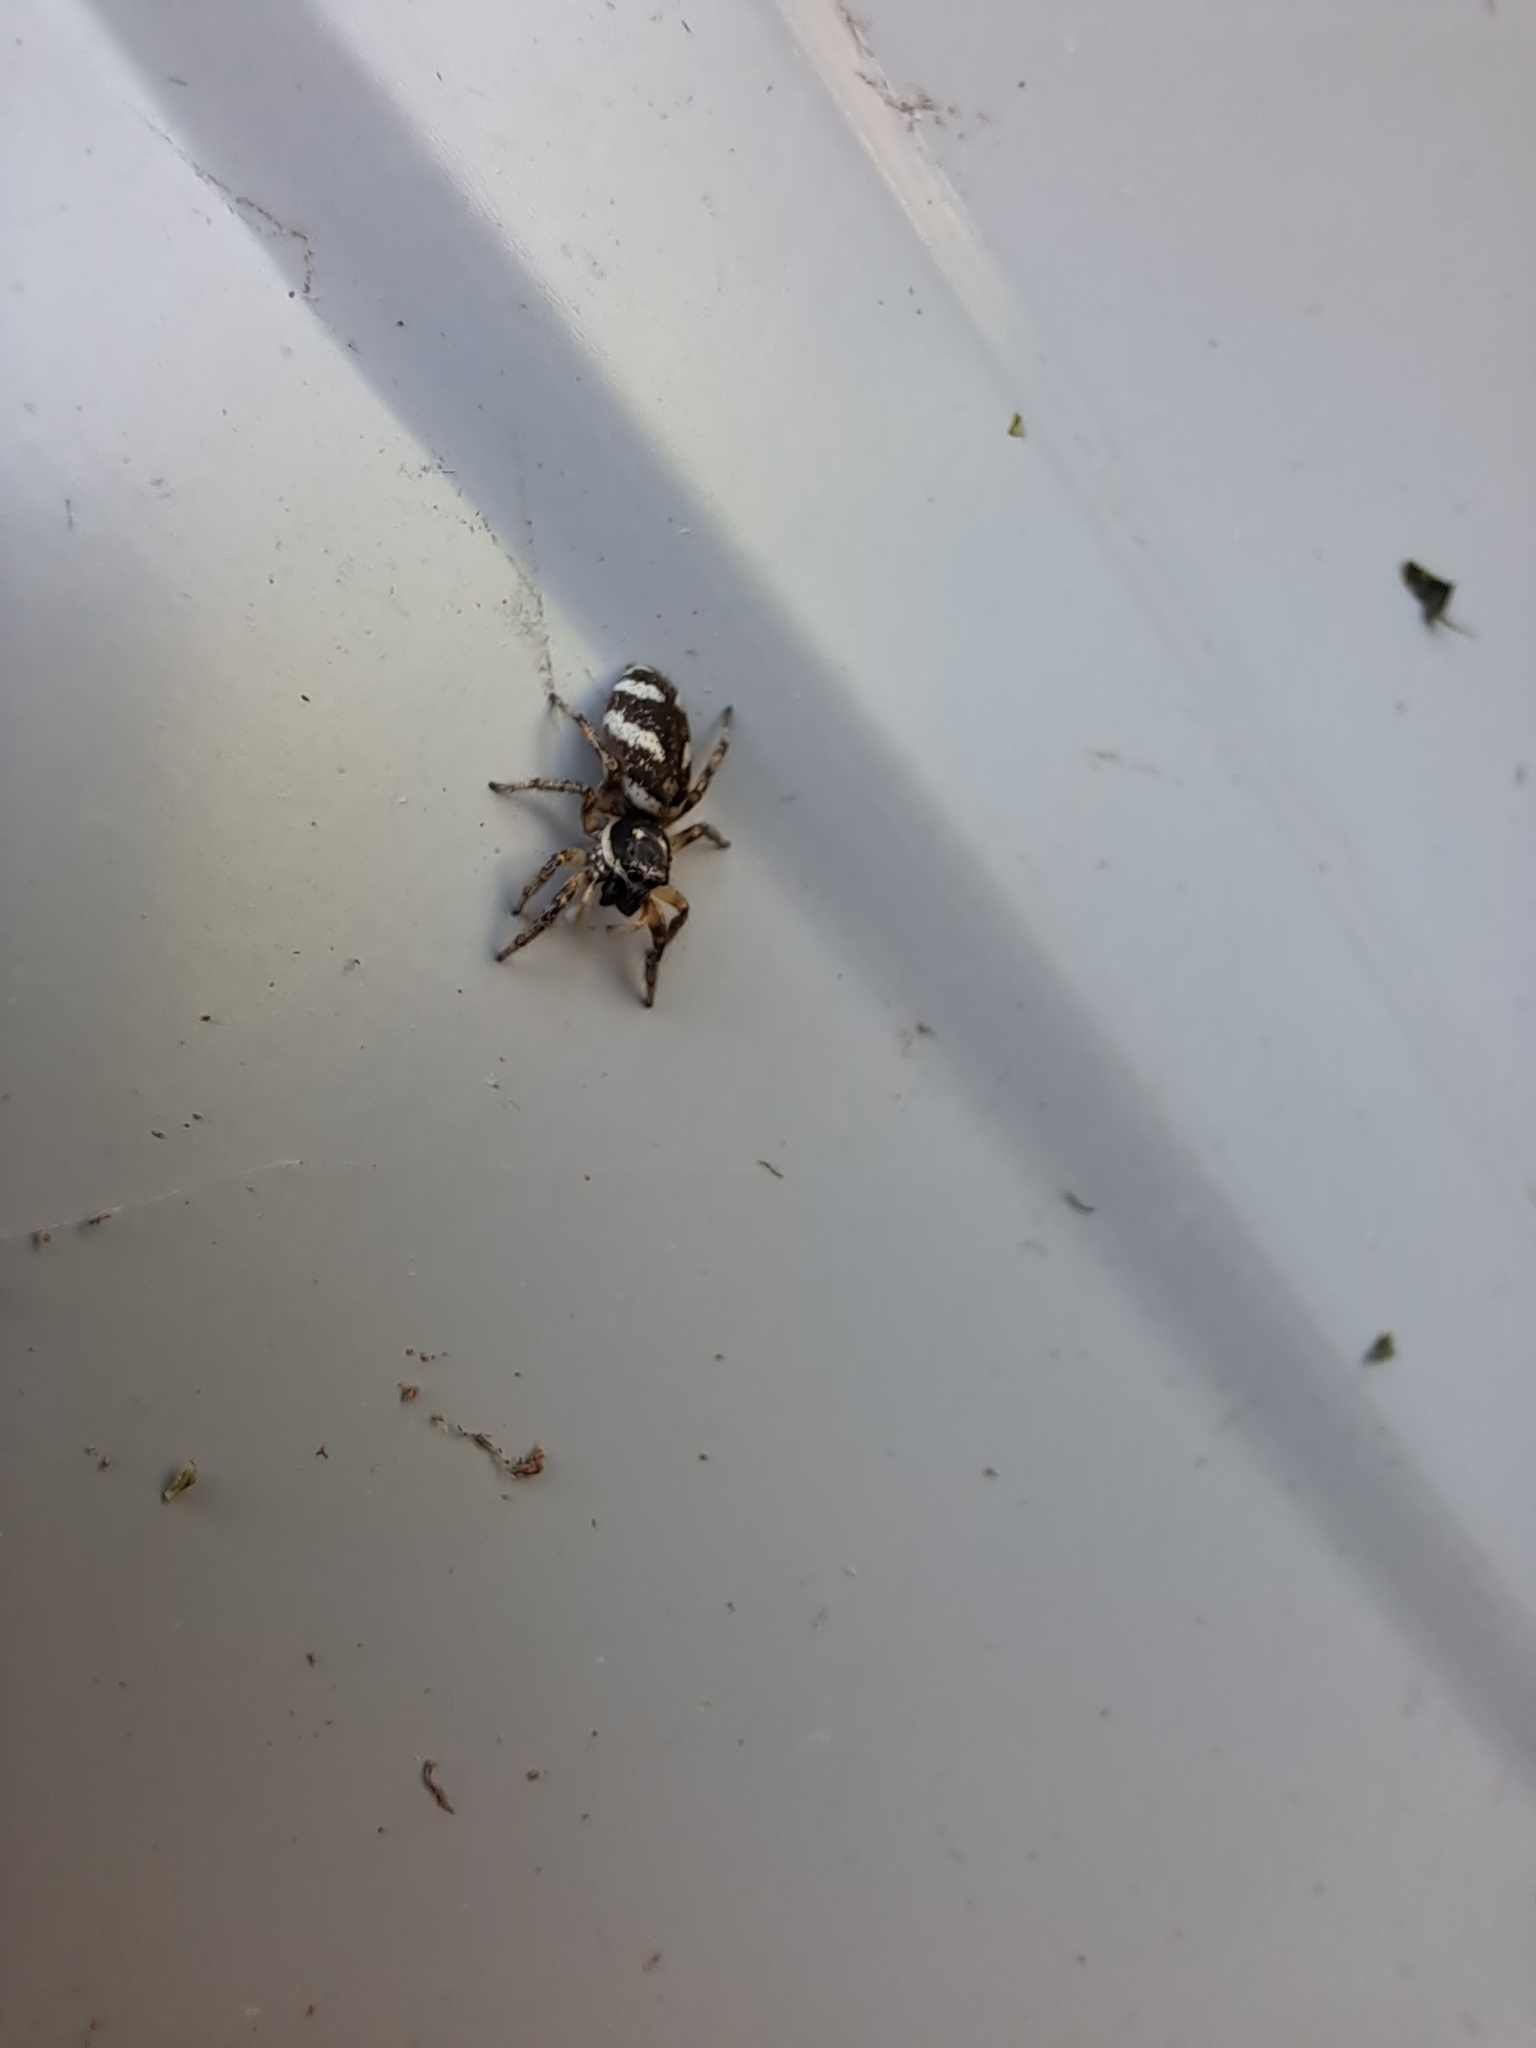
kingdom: Animalia
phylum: Arthropoda
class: Arachnida
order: Araneae
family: Salticidae
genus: Salticus
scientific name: Salticus scenicus
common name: Zebra jumper
